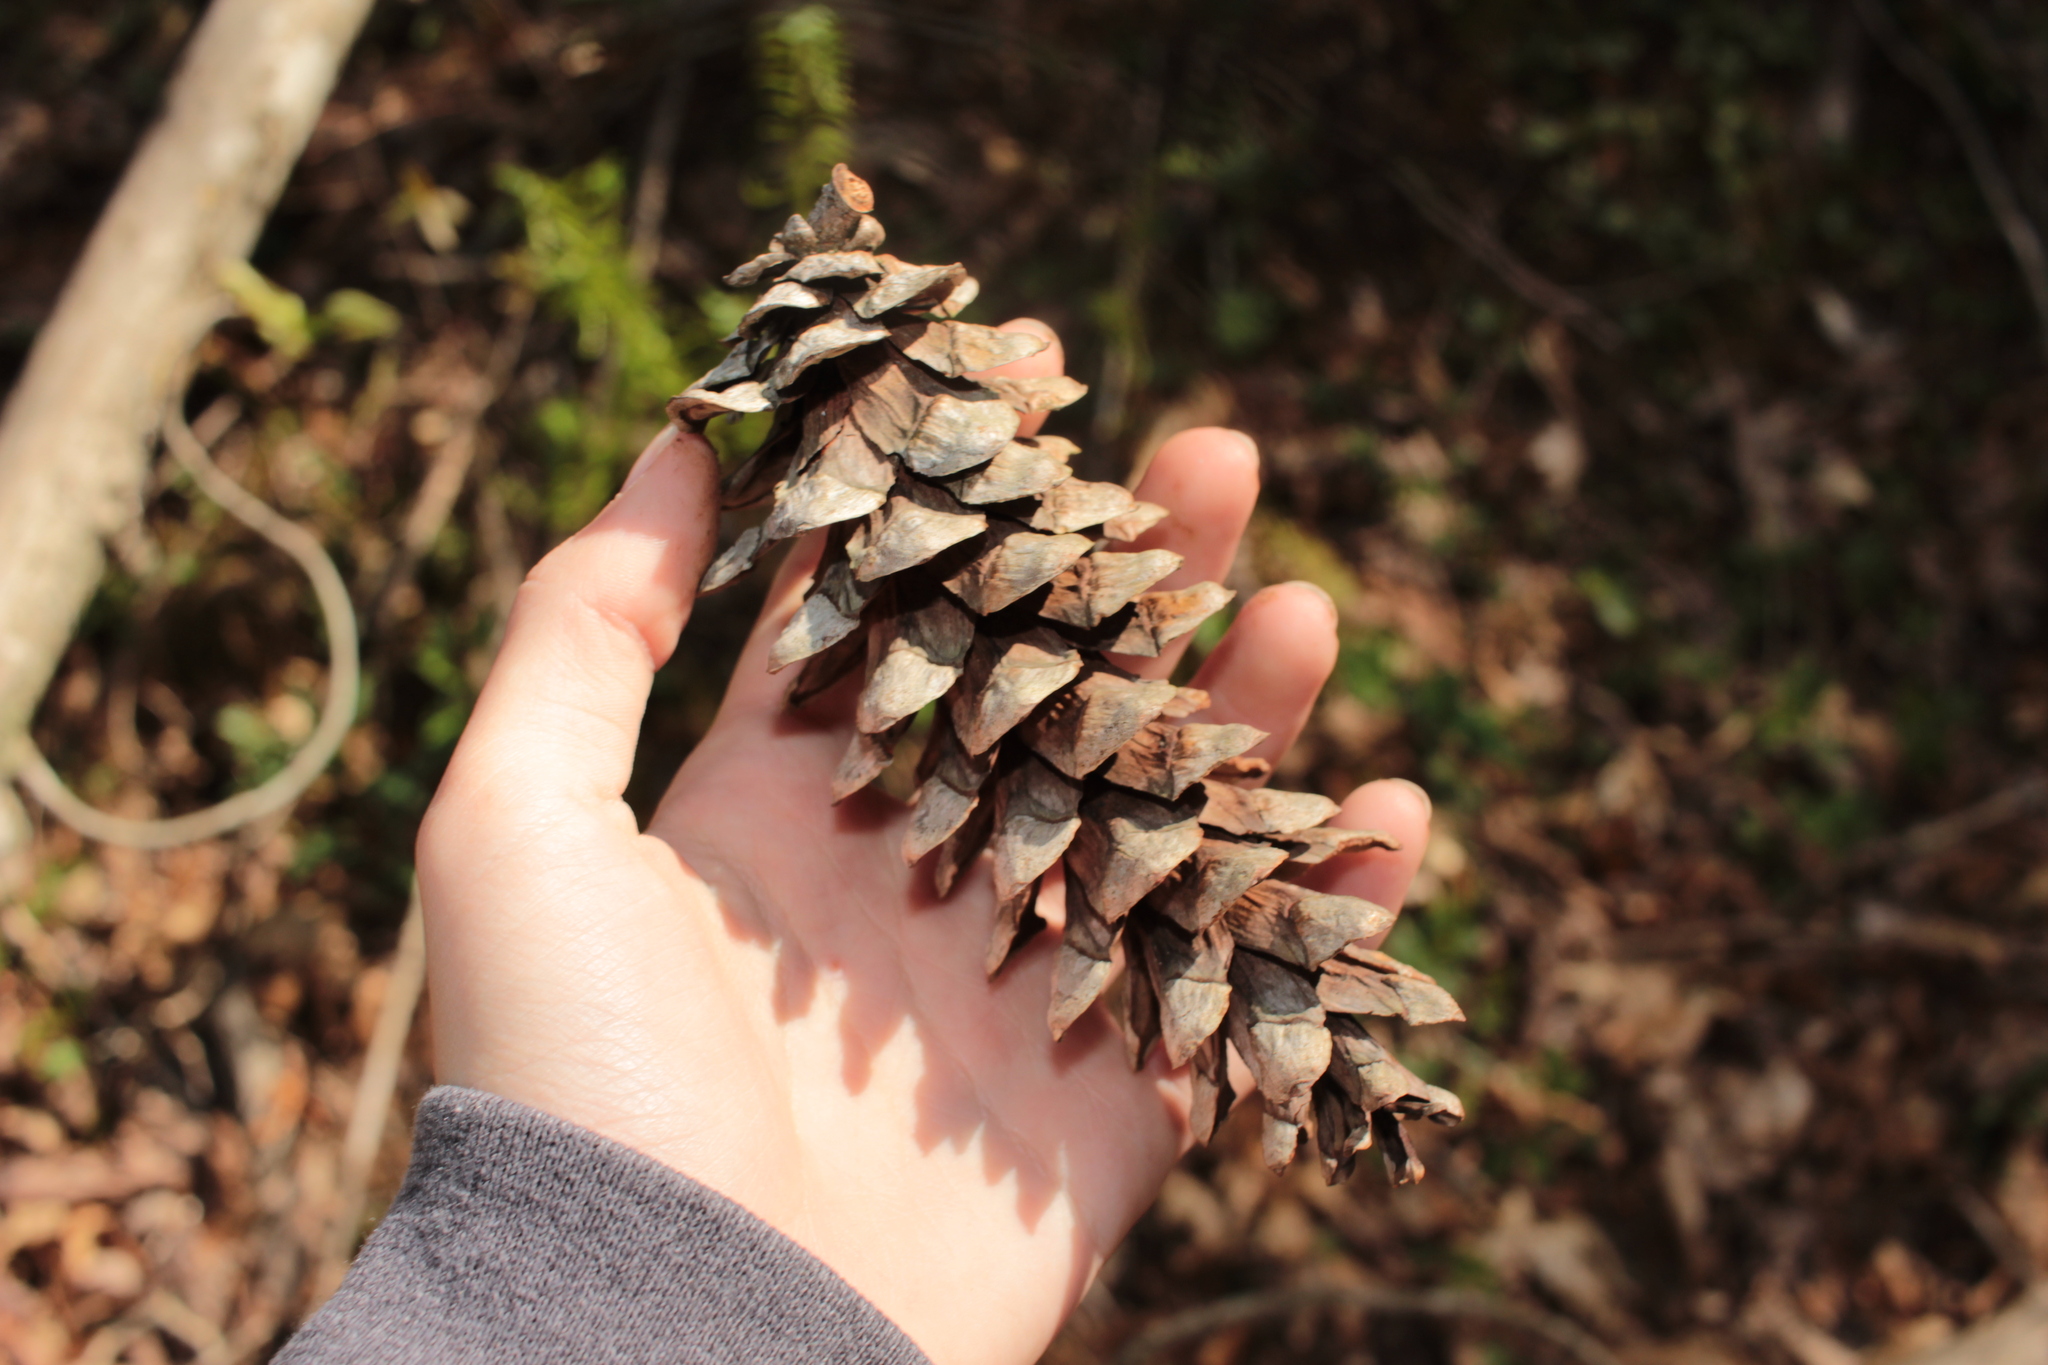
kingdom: Plantae
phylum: Tracheophyta
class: Pinopsida
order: Pinales
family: Pinaceae
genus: Pinus
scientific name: Pinus strobus
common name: Weymouth pine
